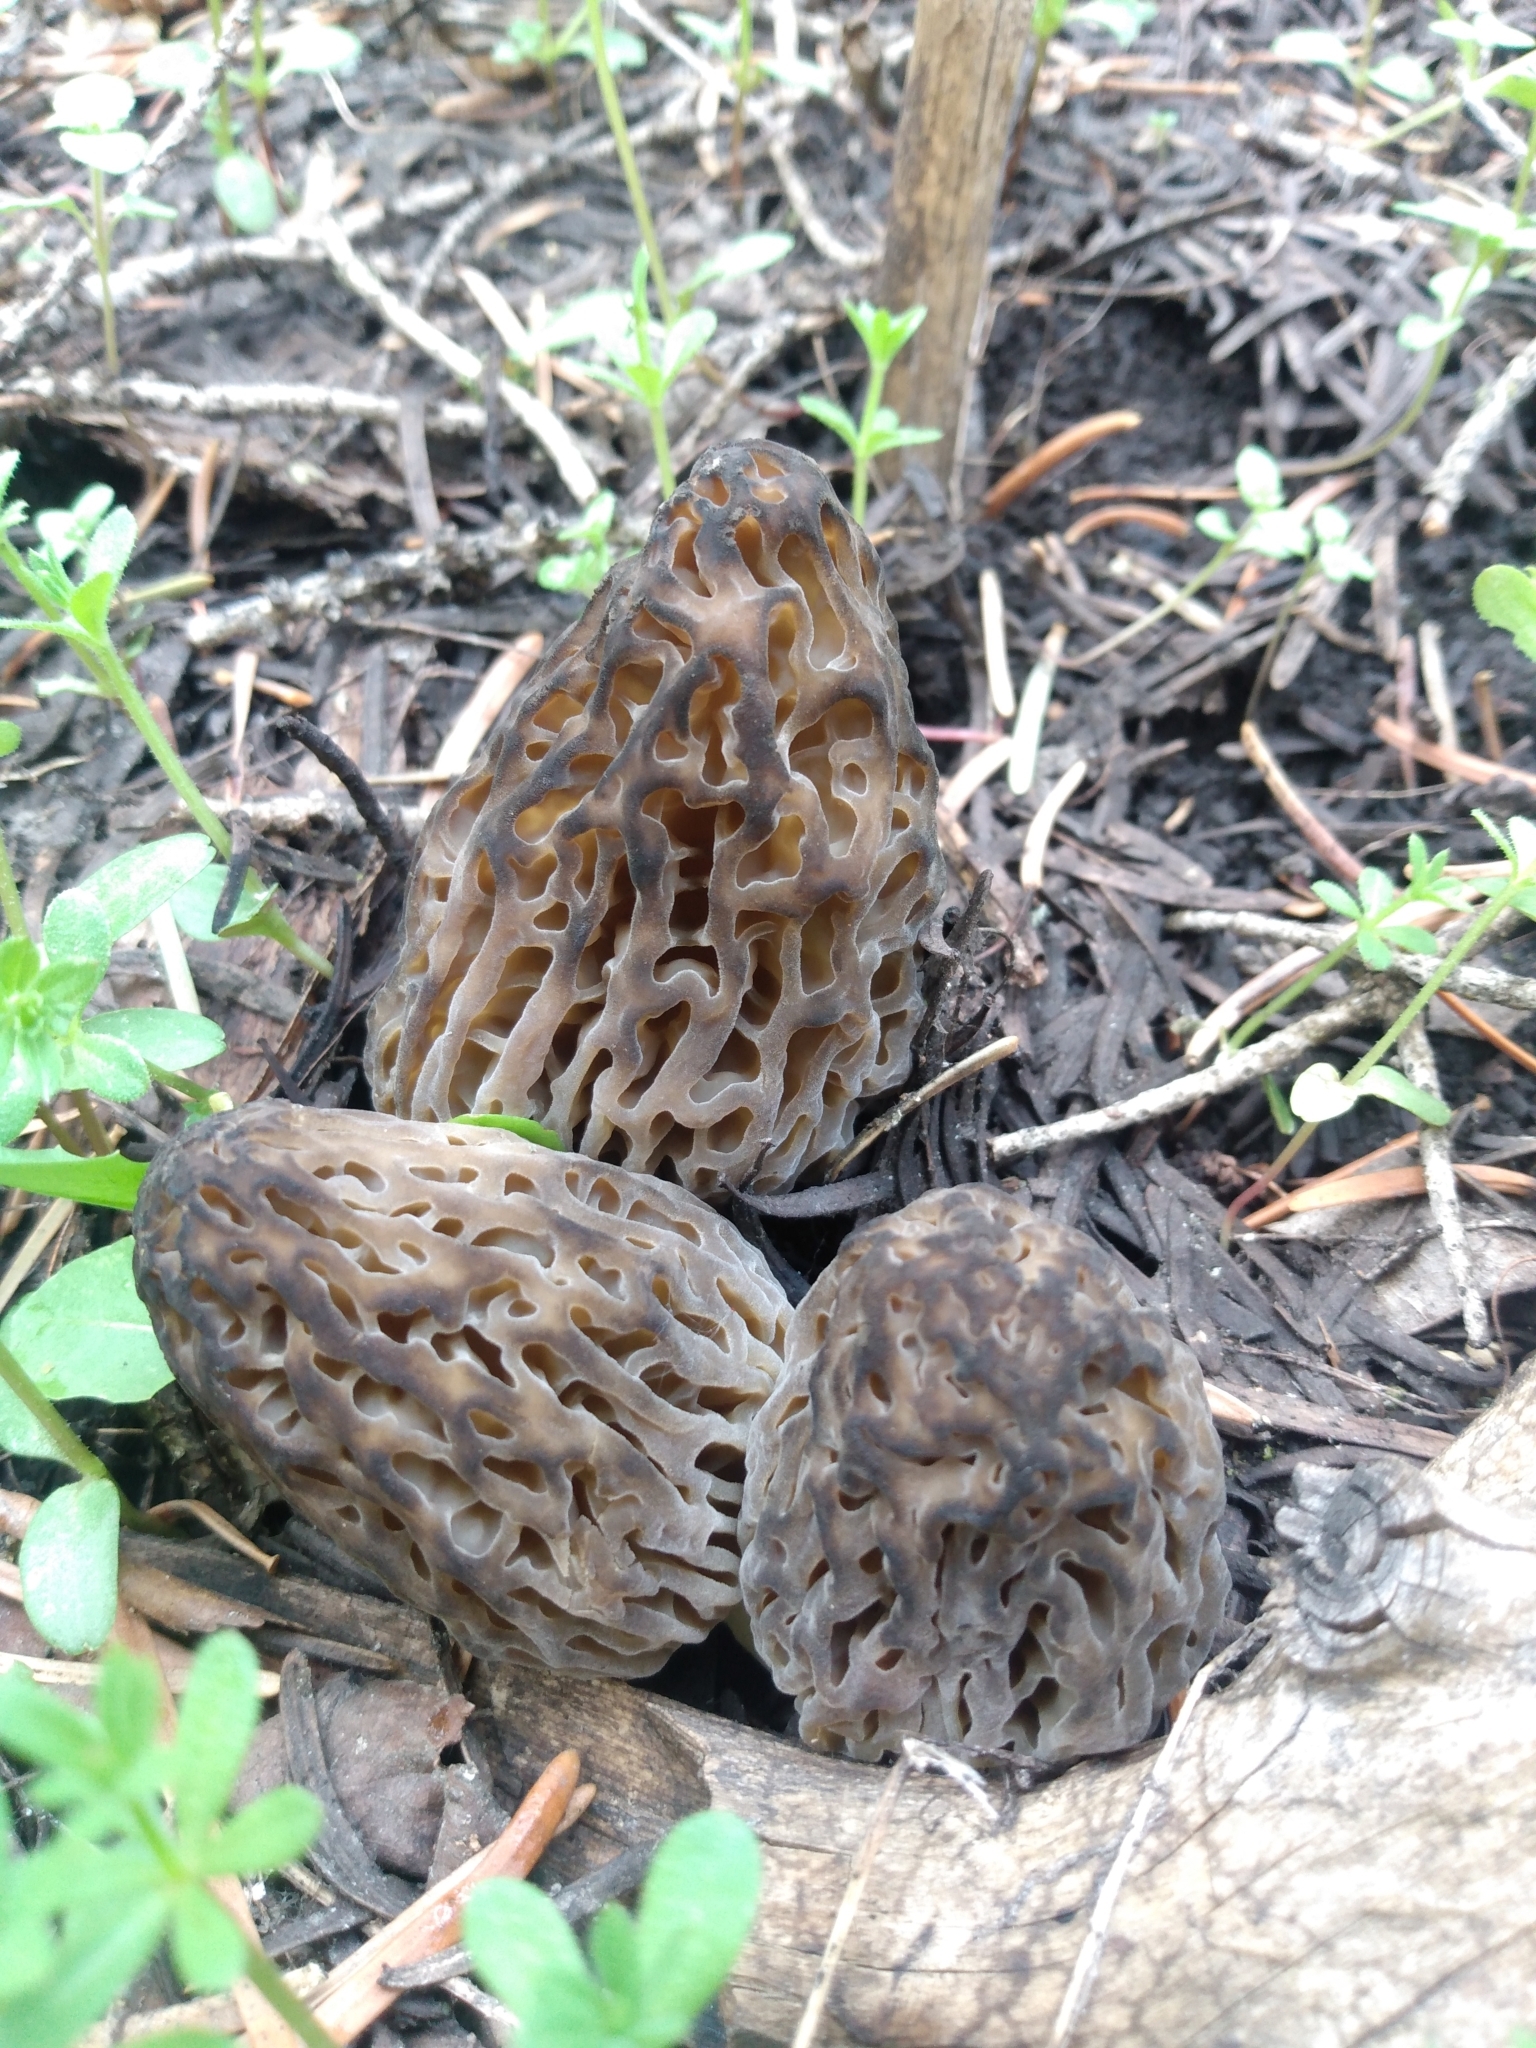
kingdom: Fungi
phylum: Ascomycota
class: Pezizomycetes
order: Pezizales
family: Morchellaceae
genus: Morchella
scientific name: Morchella snyderi
